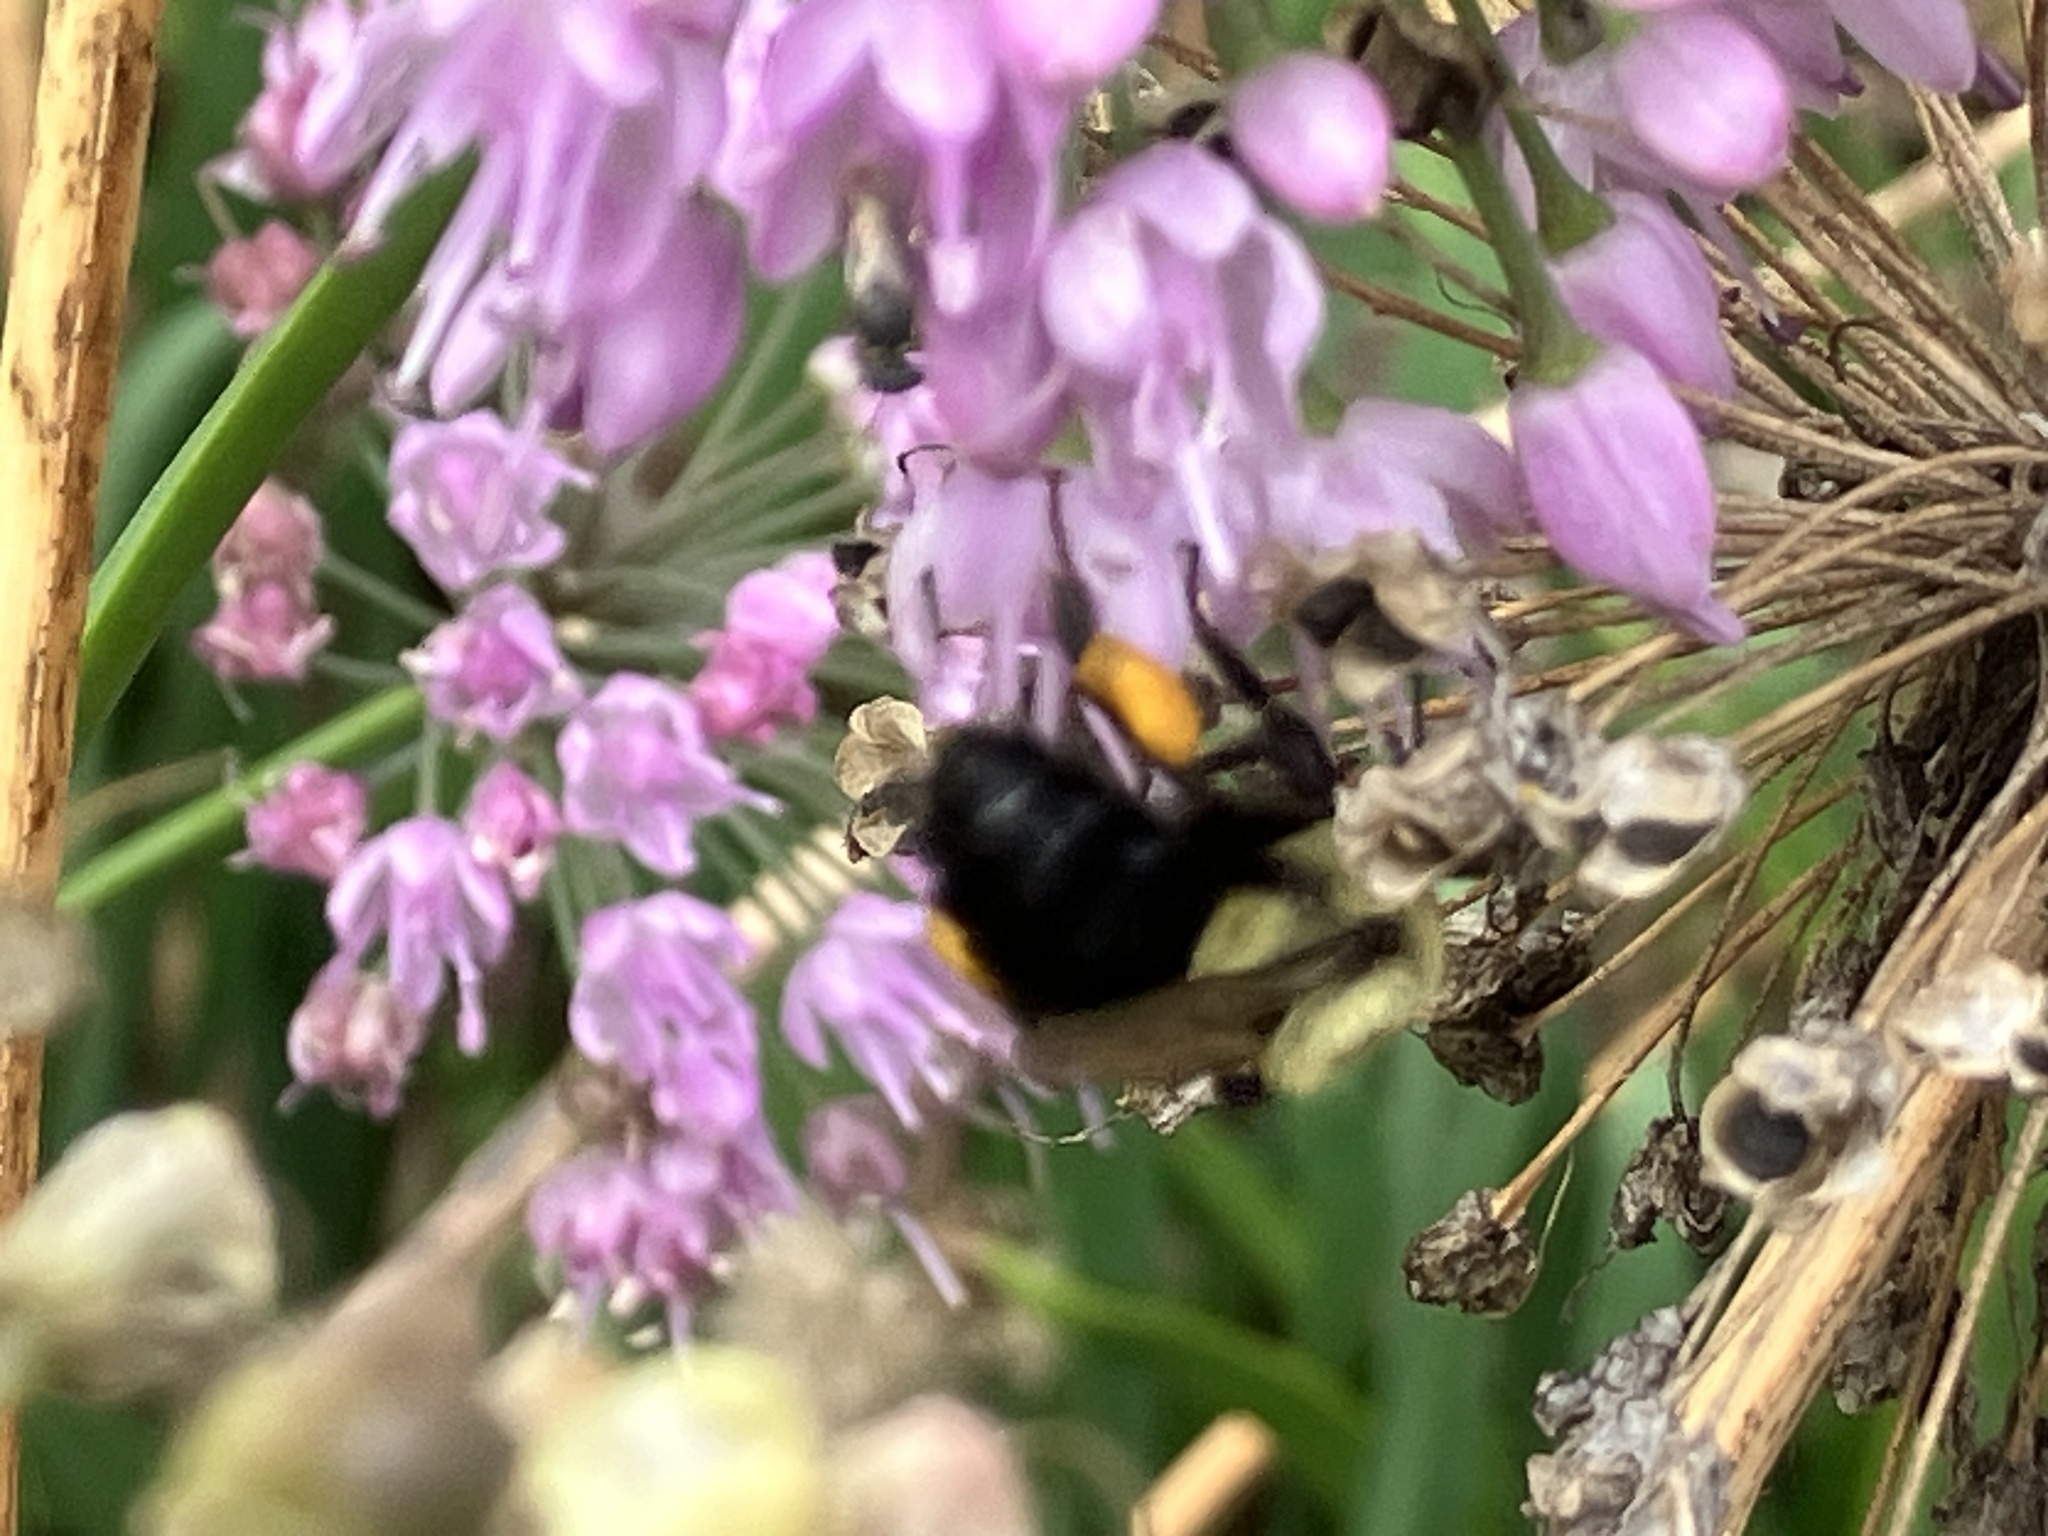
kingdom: Animalia
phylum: Arthropoda
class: Insecta
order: Hymenoptera
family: Apidae
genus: Bombus
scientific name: Bombus impatiens
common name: Common eastern bumble bee
